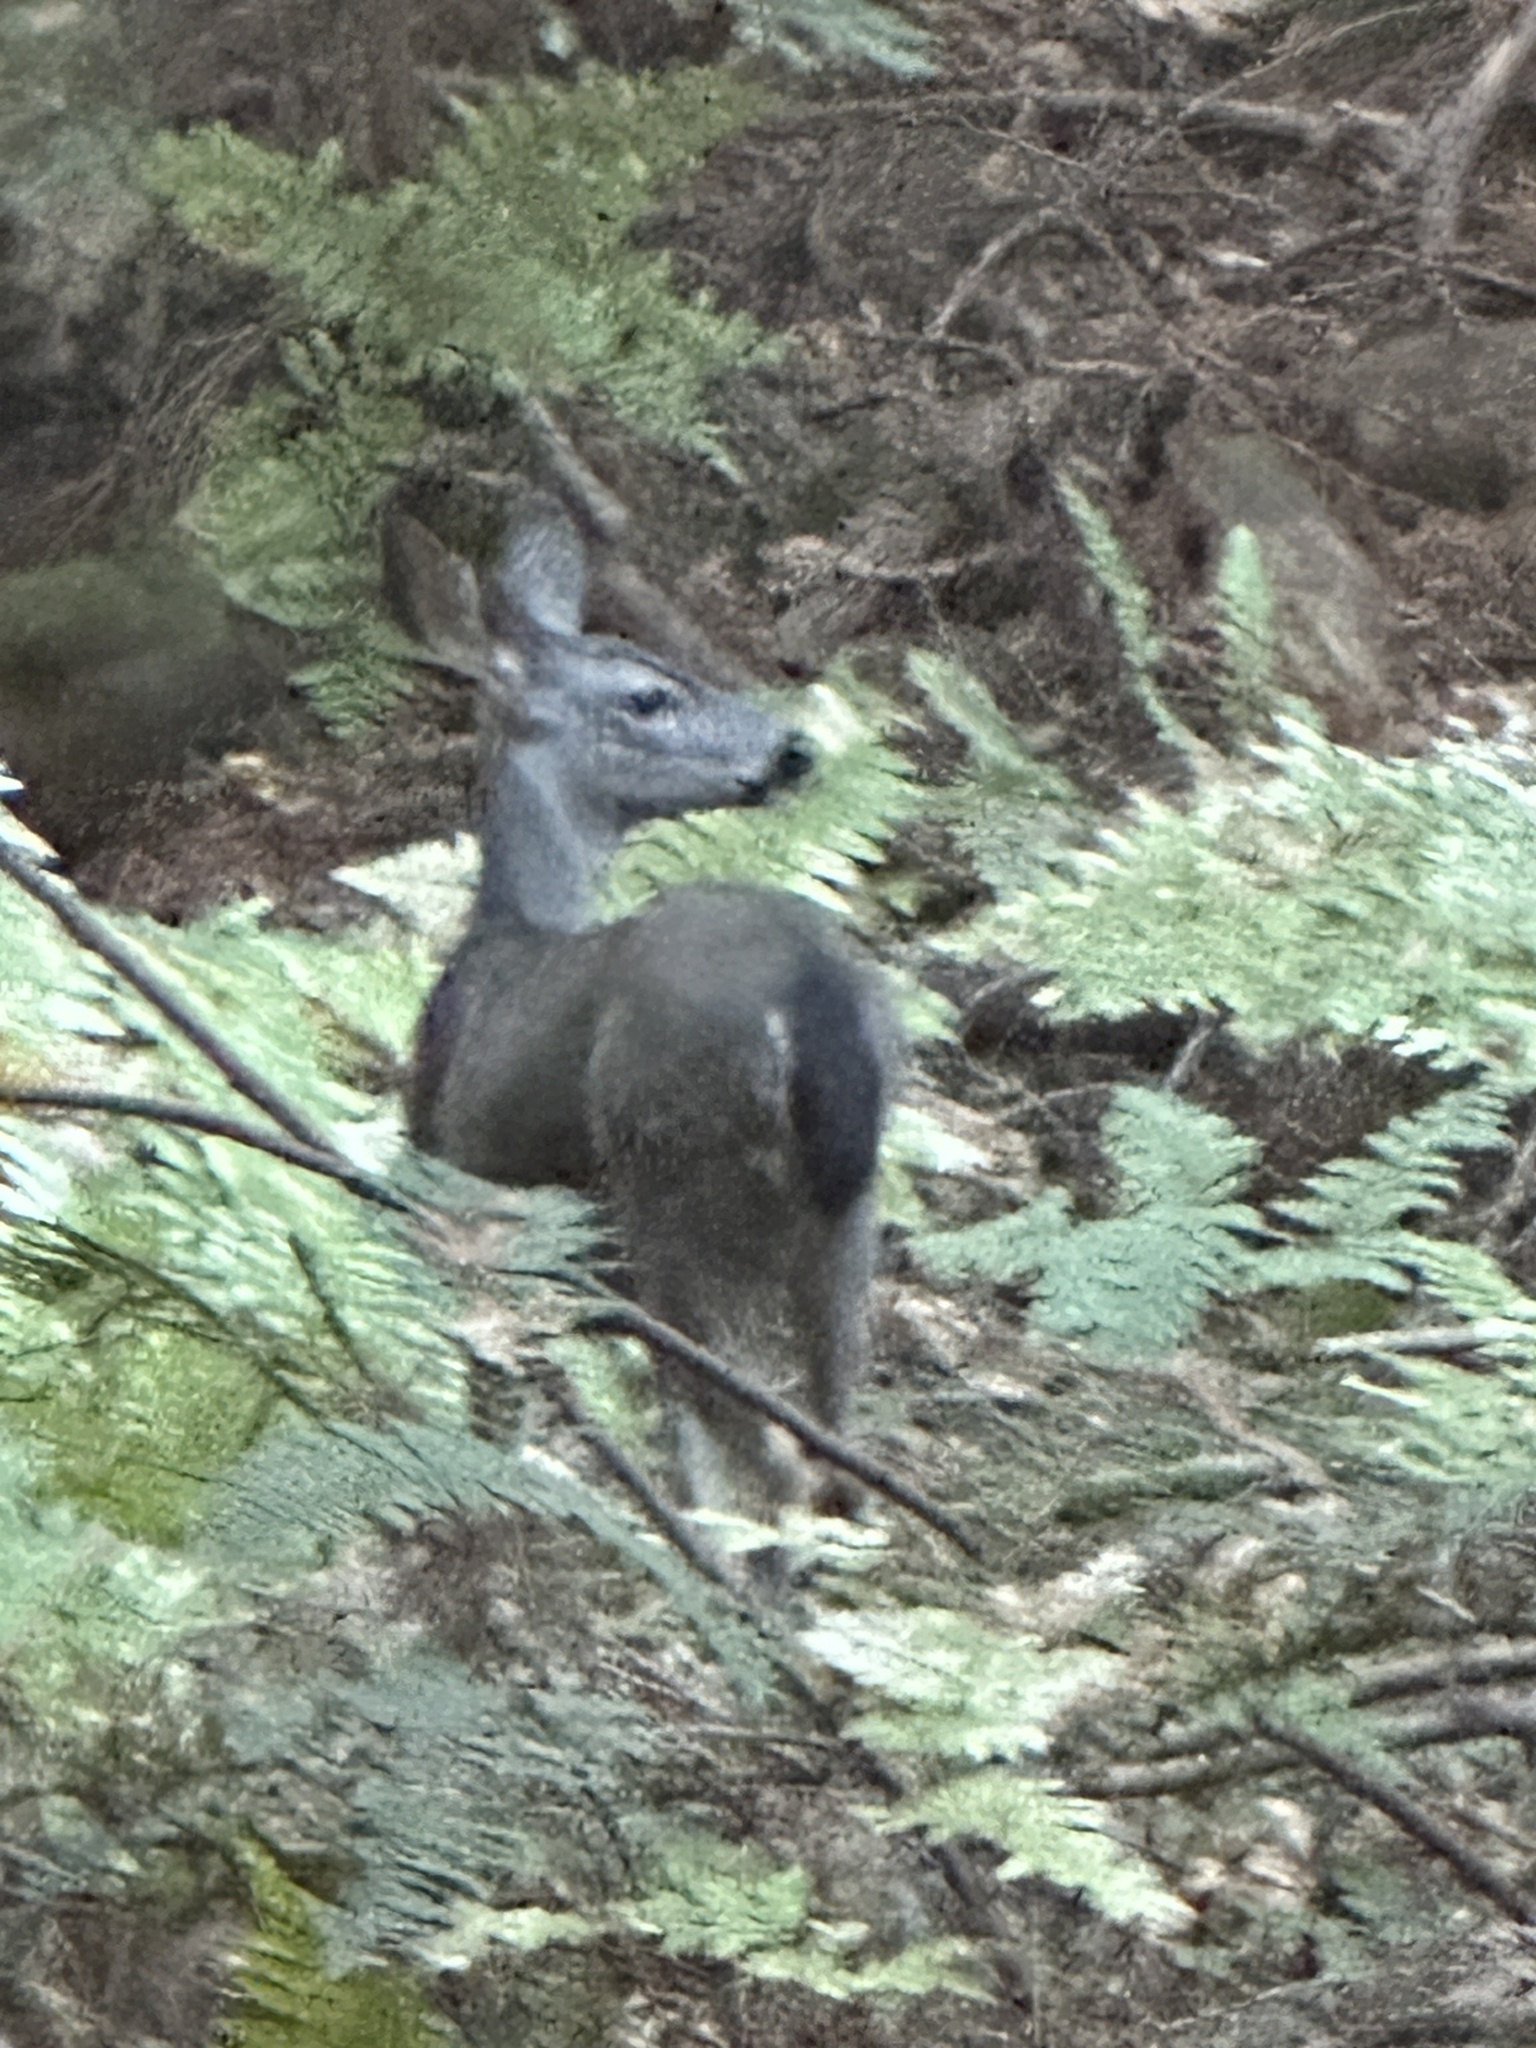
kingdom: Animalia
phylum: Chordata
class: Mammalia
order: Artiodactyla
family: Cervidae
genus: Odocoileus
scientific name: Odocoileus hemionus
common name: Mule deer
